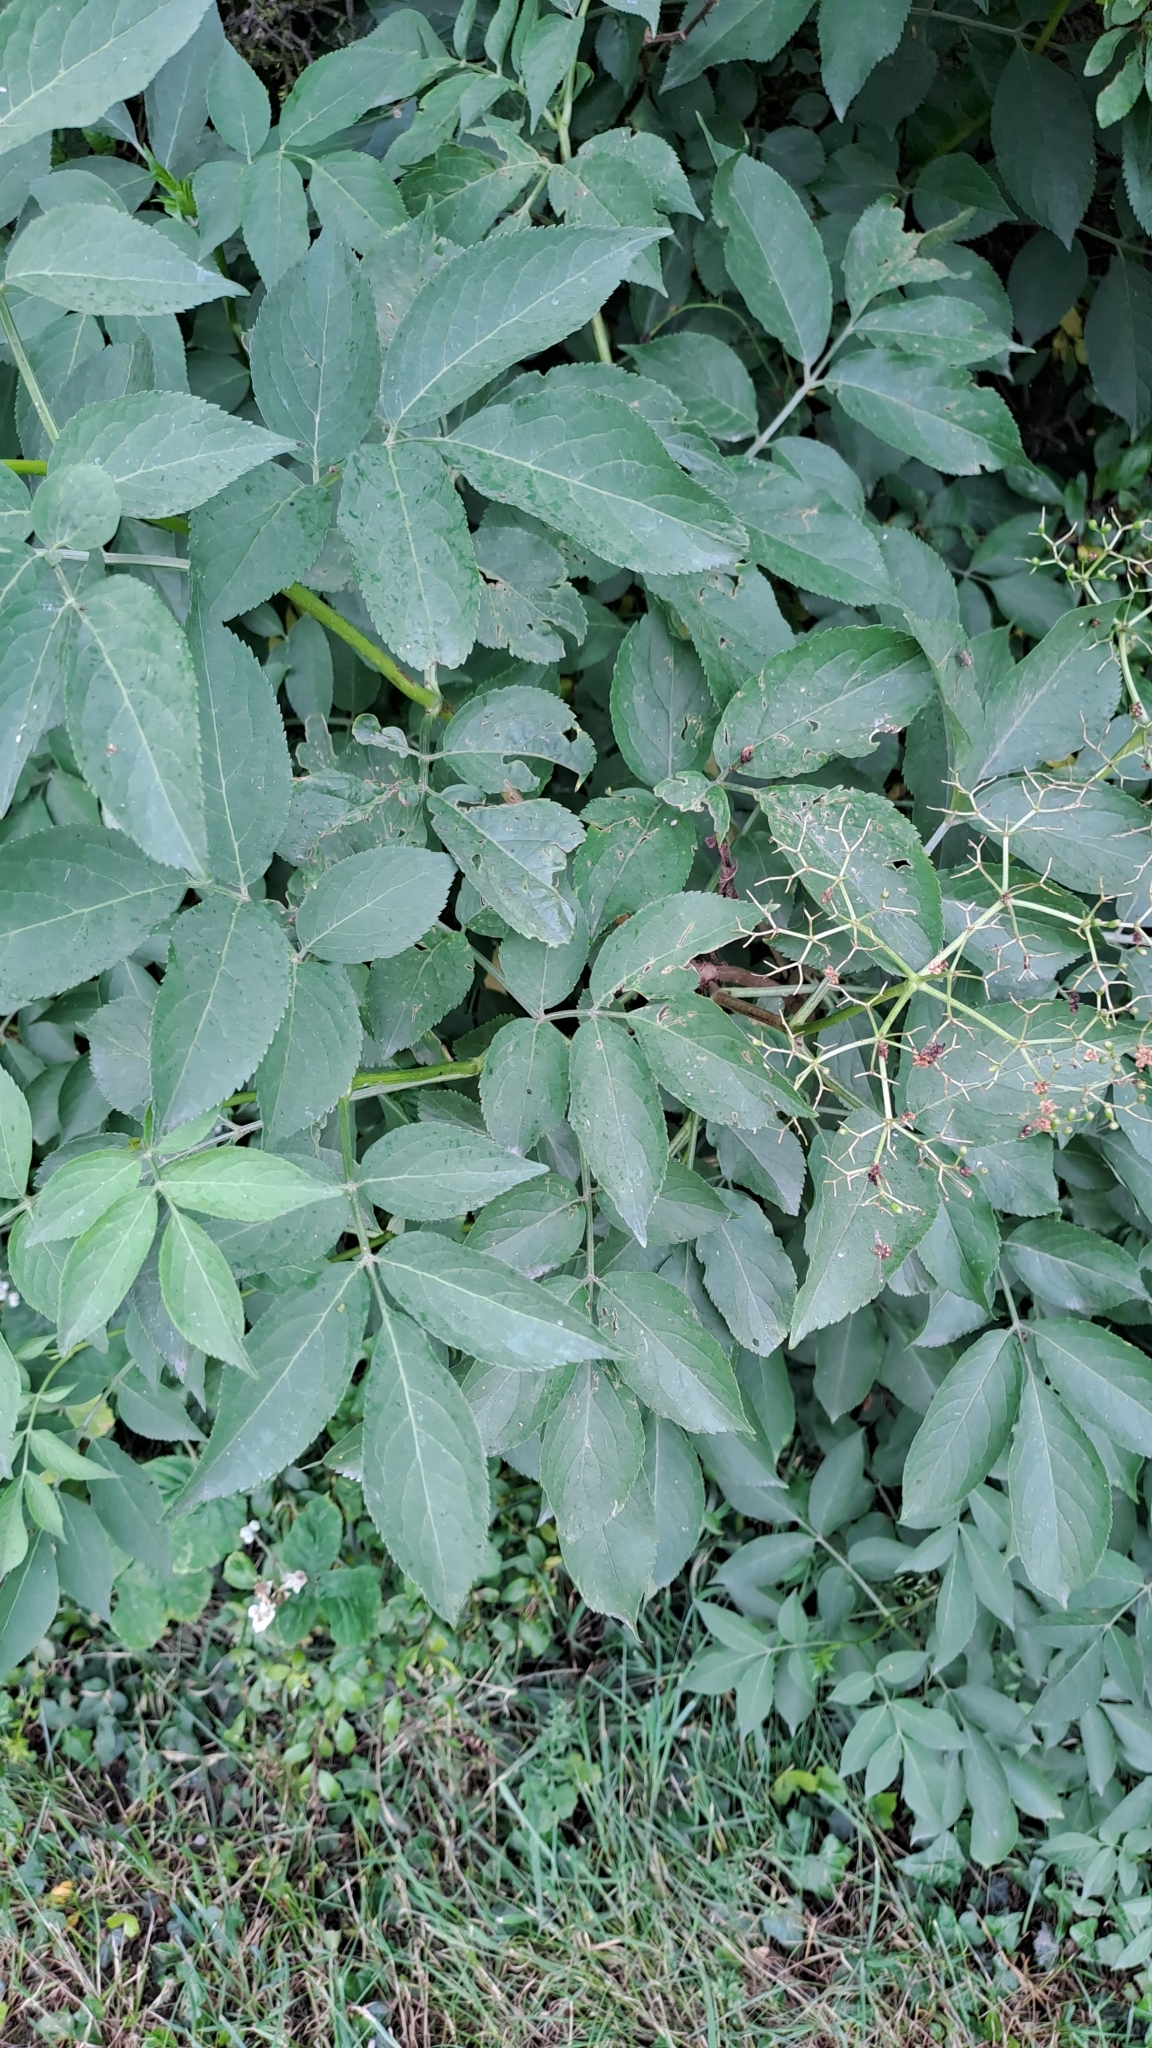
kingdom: Plantae
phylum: Tracheophyta
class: Magnoliopsida
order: Dipsacales
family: Viburnaceae
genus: Sambucus
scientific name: Sambucus nigra
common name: Elder
